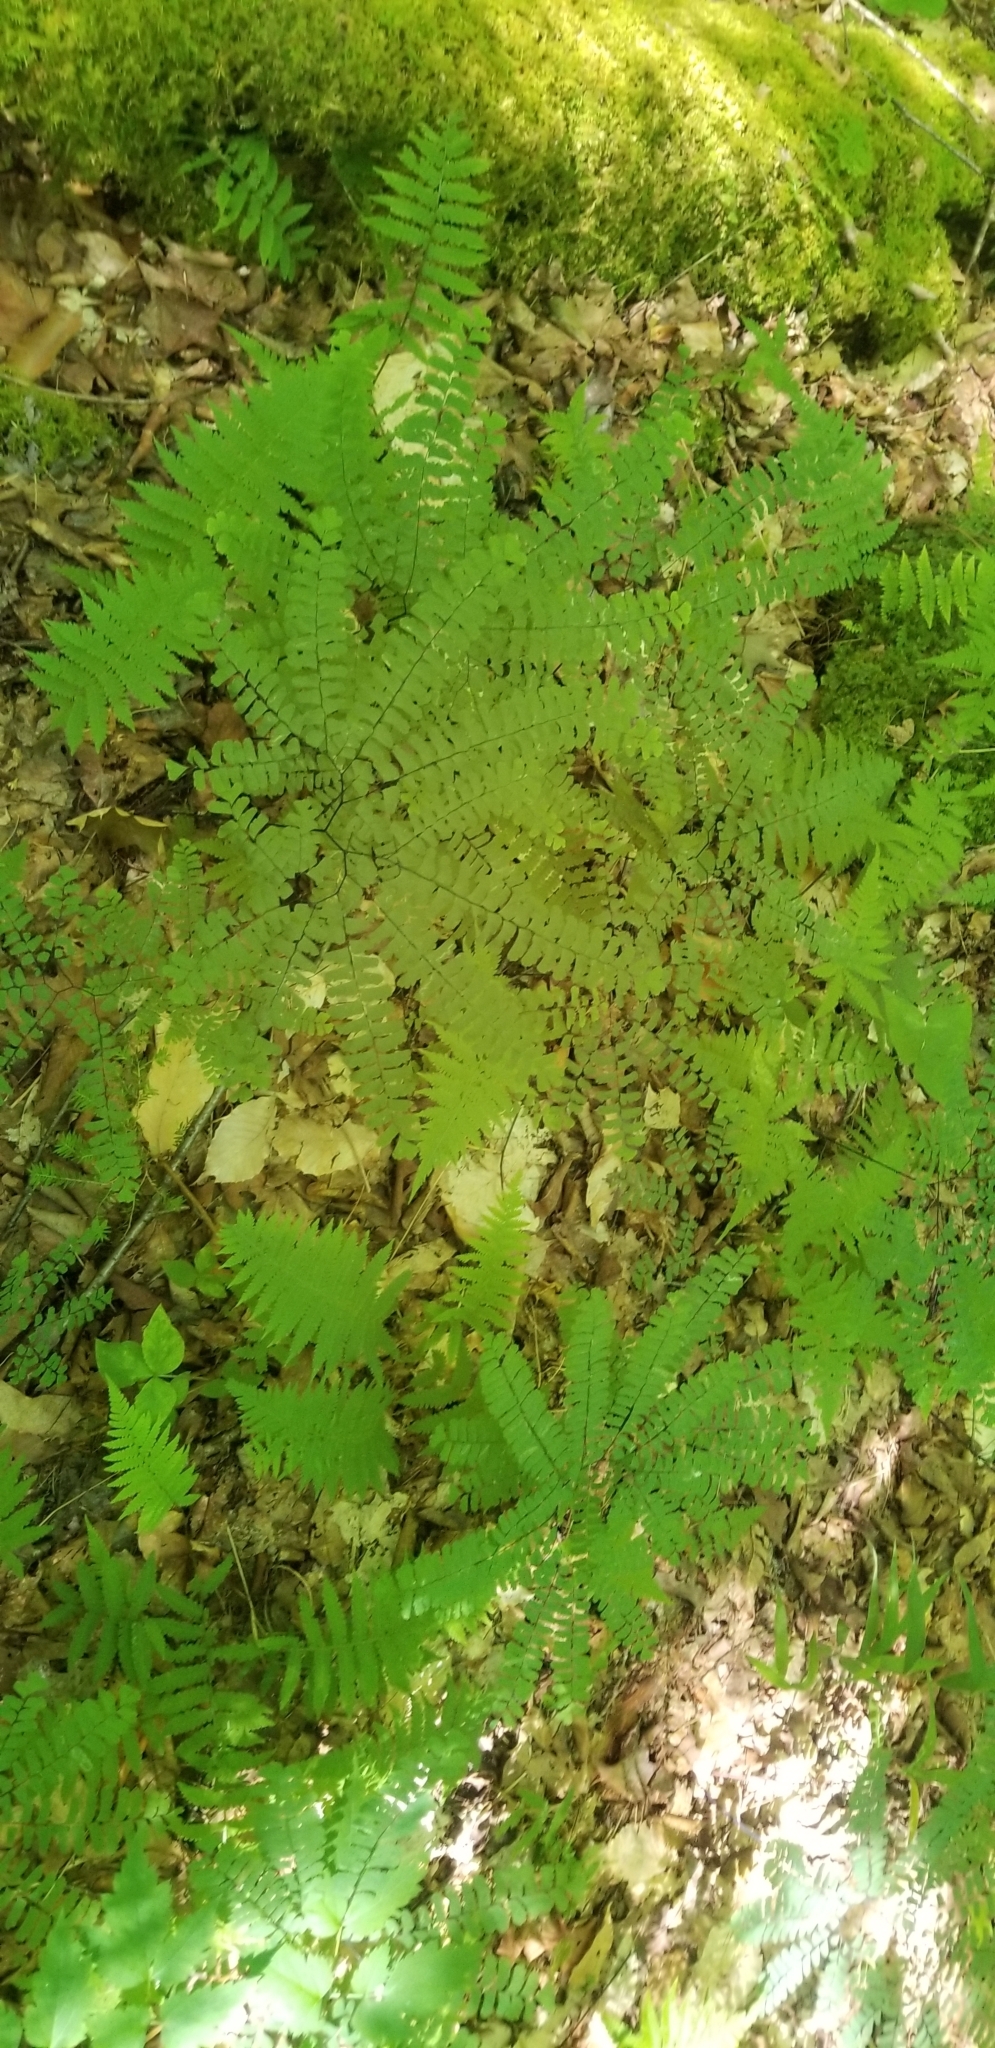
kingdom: Plantae
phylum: Tracheophyta
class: Polypodiopsida
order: Polypodiales
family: Pteridaceae
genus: Adiantum
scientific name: Adiantum pedatum
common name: Five-finger fern
